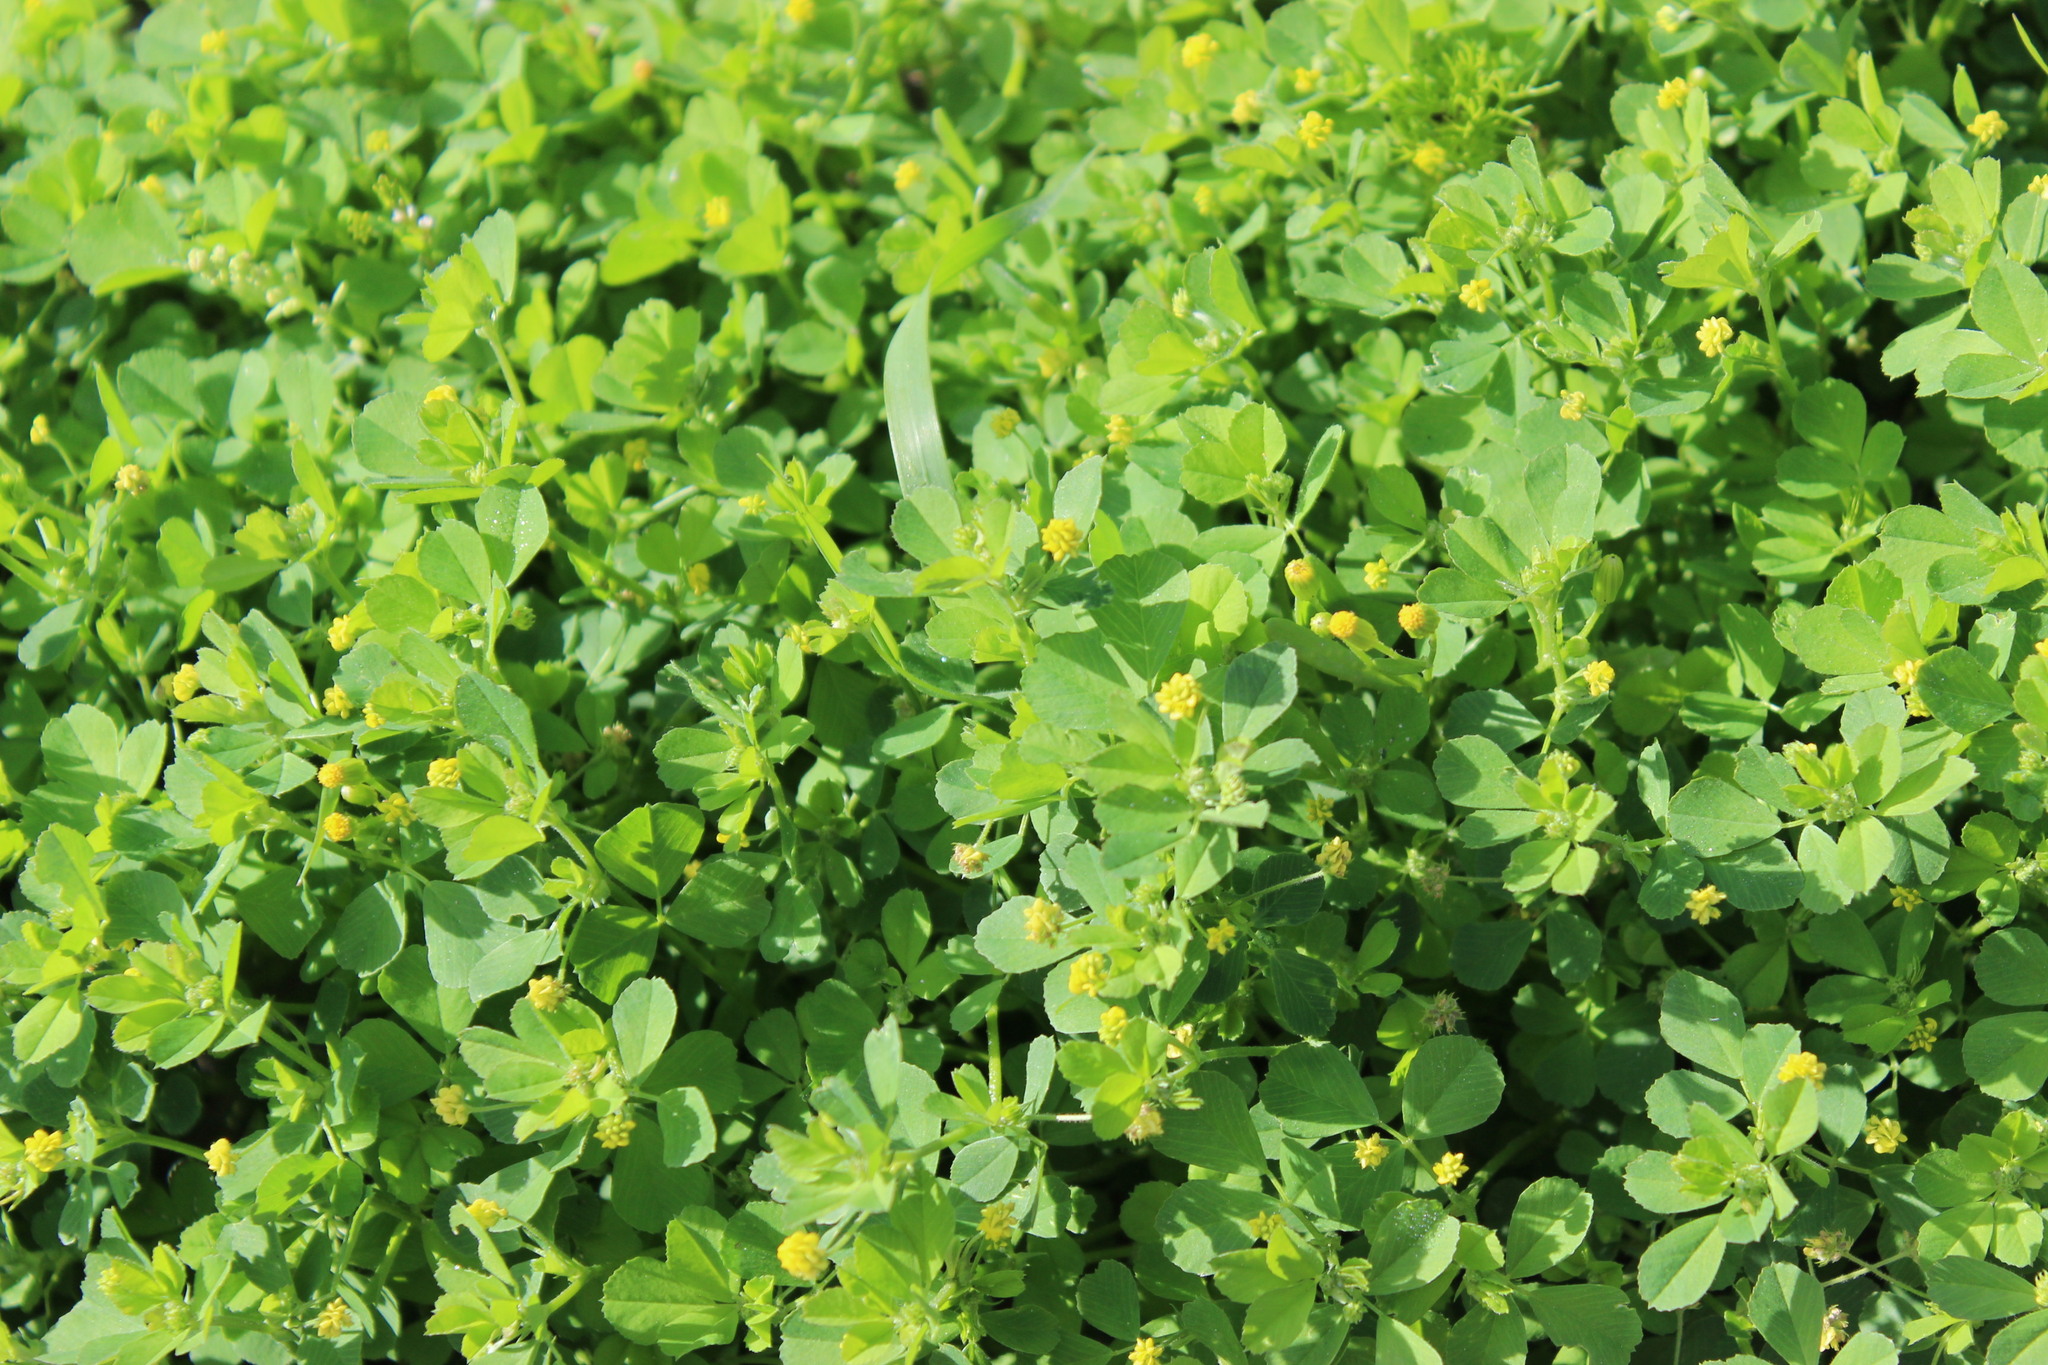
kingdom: Plantae
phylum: Tracheophyta
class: Magnoliopsida
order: Fabales
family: Fabaceae
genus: Medicago
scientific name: Medicago lupulina
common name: Black medick
